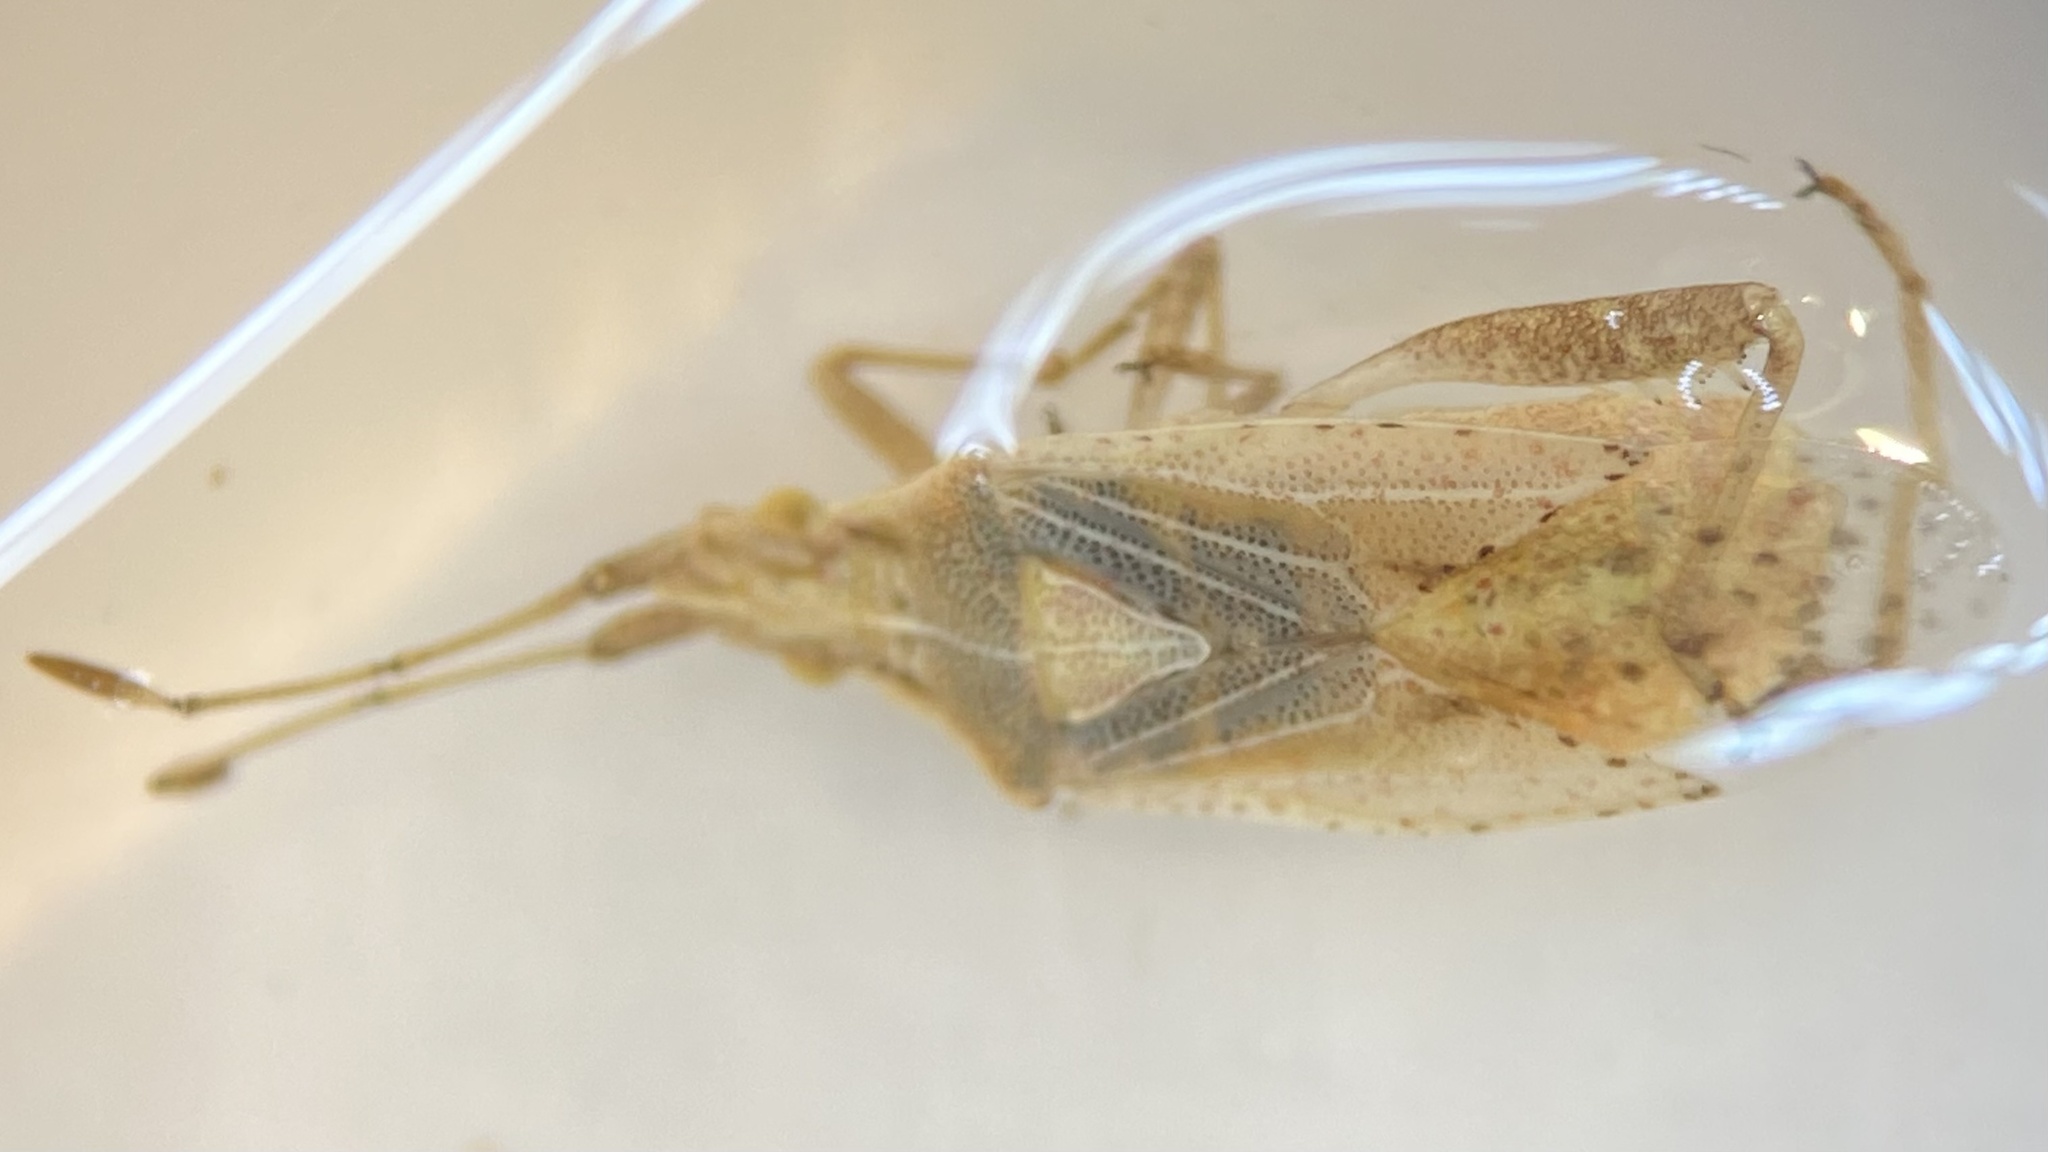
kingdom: Animalia
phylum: Arthropoda
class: Insecta
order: Hemiptera
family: Rhopalidae
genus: Harmostes
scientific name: Harmostes reflexulus
